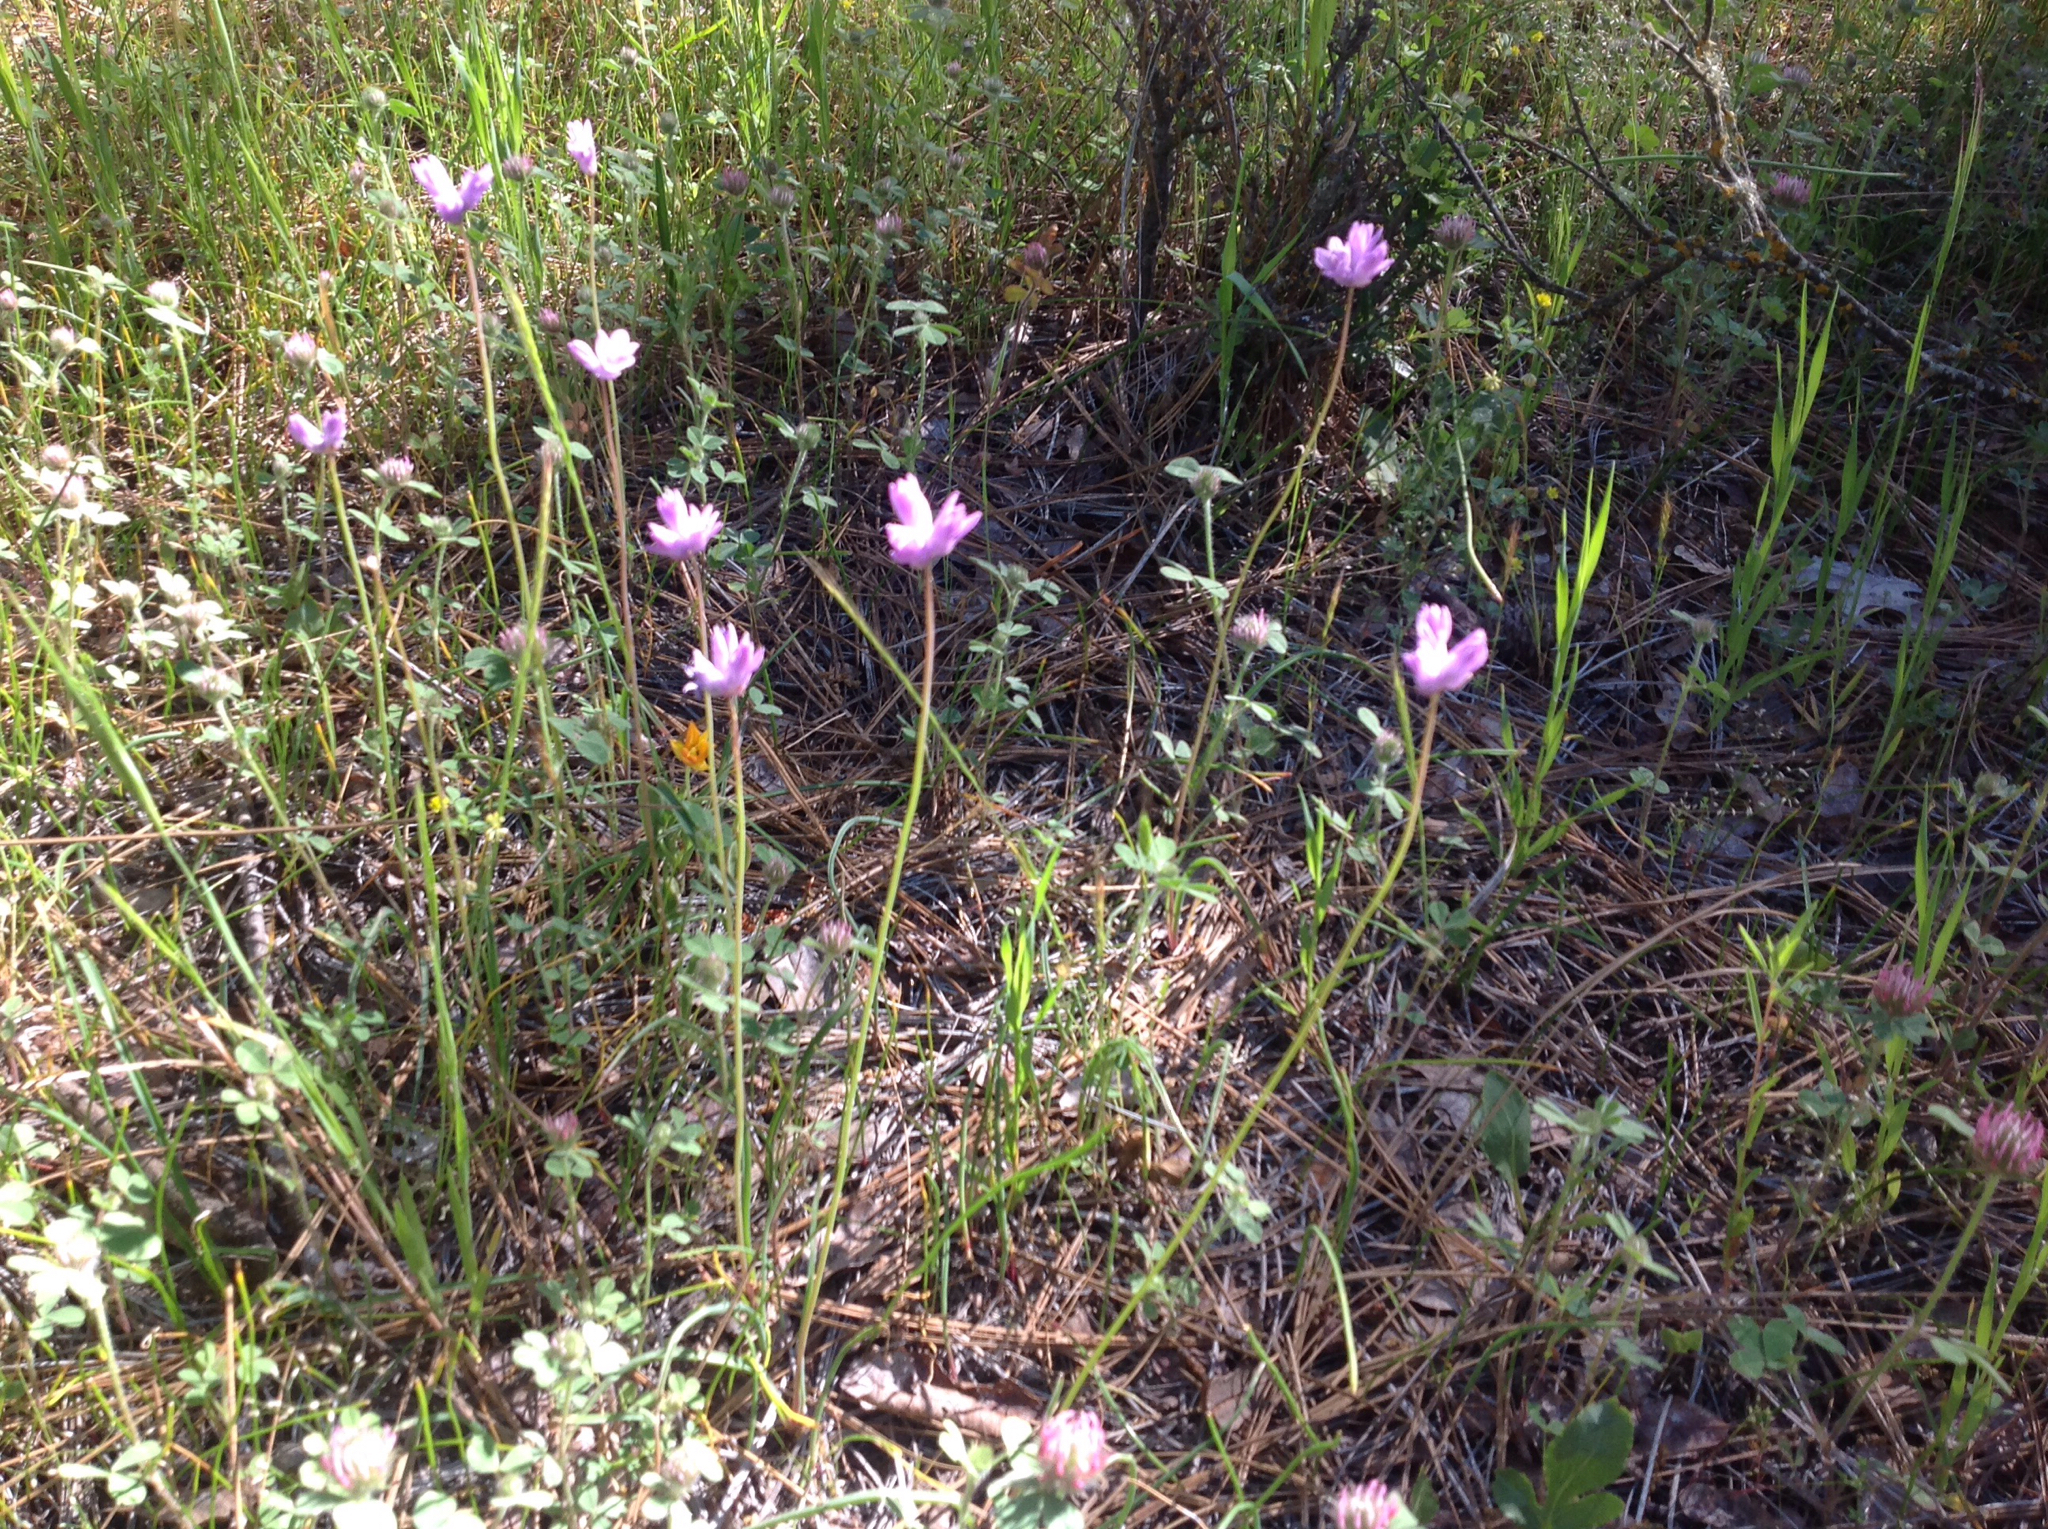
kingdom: Plantae
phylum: Tracheophyta
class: Liliopsida
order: Asparagales
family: Asparagaceae
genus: Dipterostemon
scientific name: Dipterostemon capitatus
